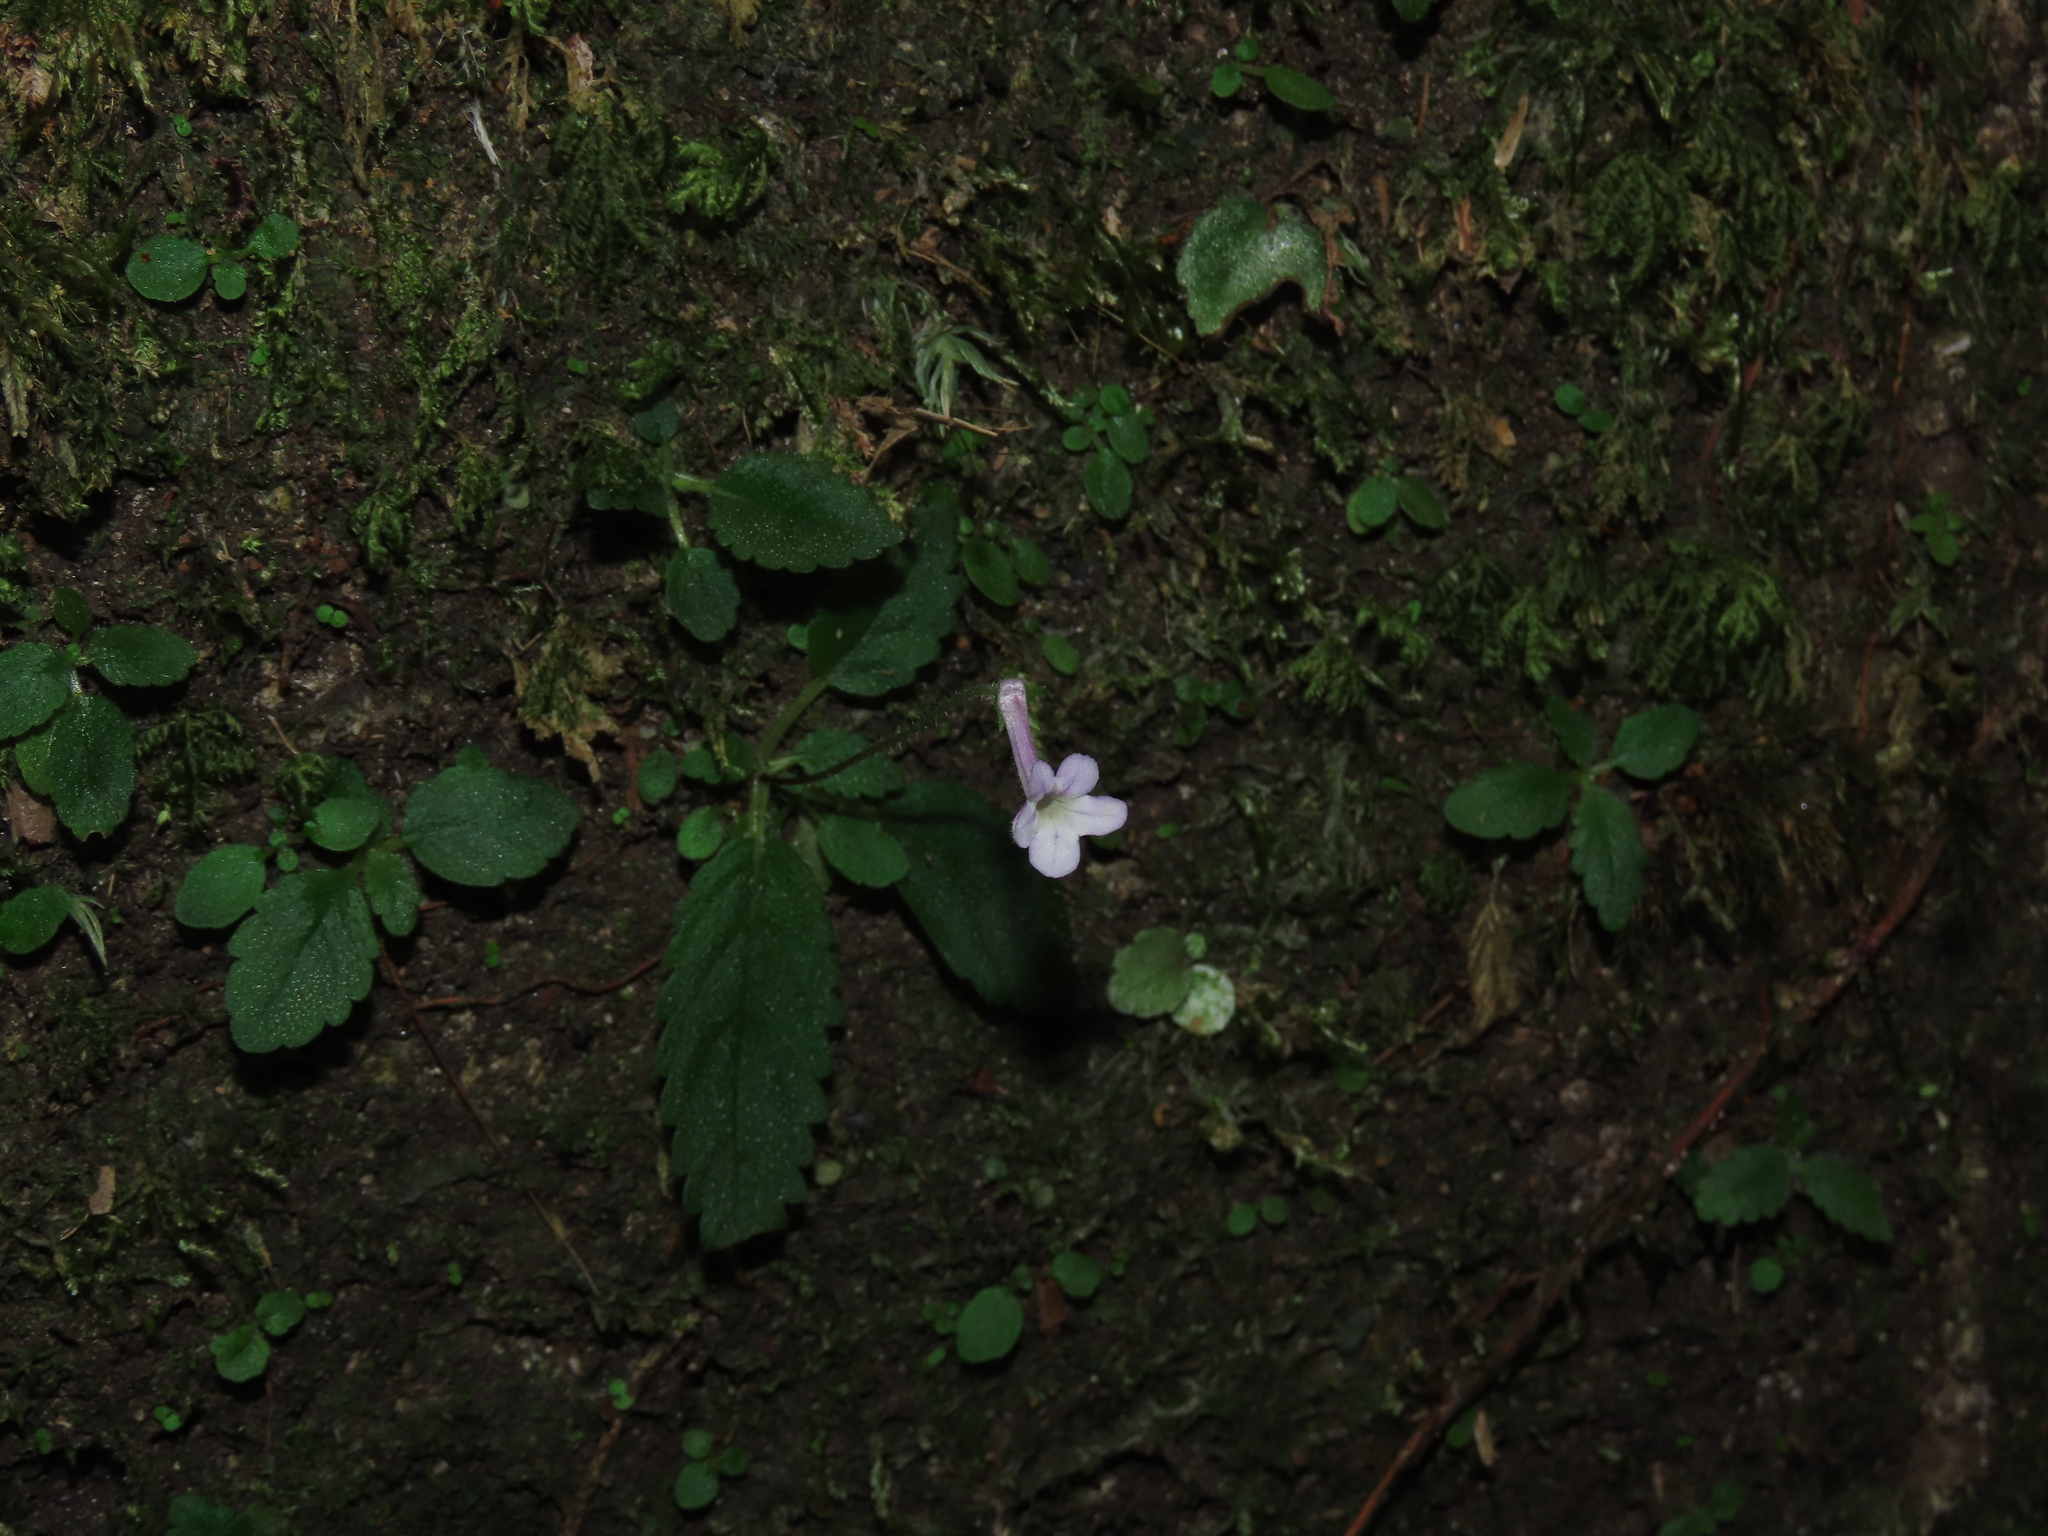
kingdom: Plantae
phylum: Tracheophyta
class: Magnoliopsida
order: Lamiales
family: Gesneriaceae
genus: Sinningia
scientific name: Sinningia pusilla
